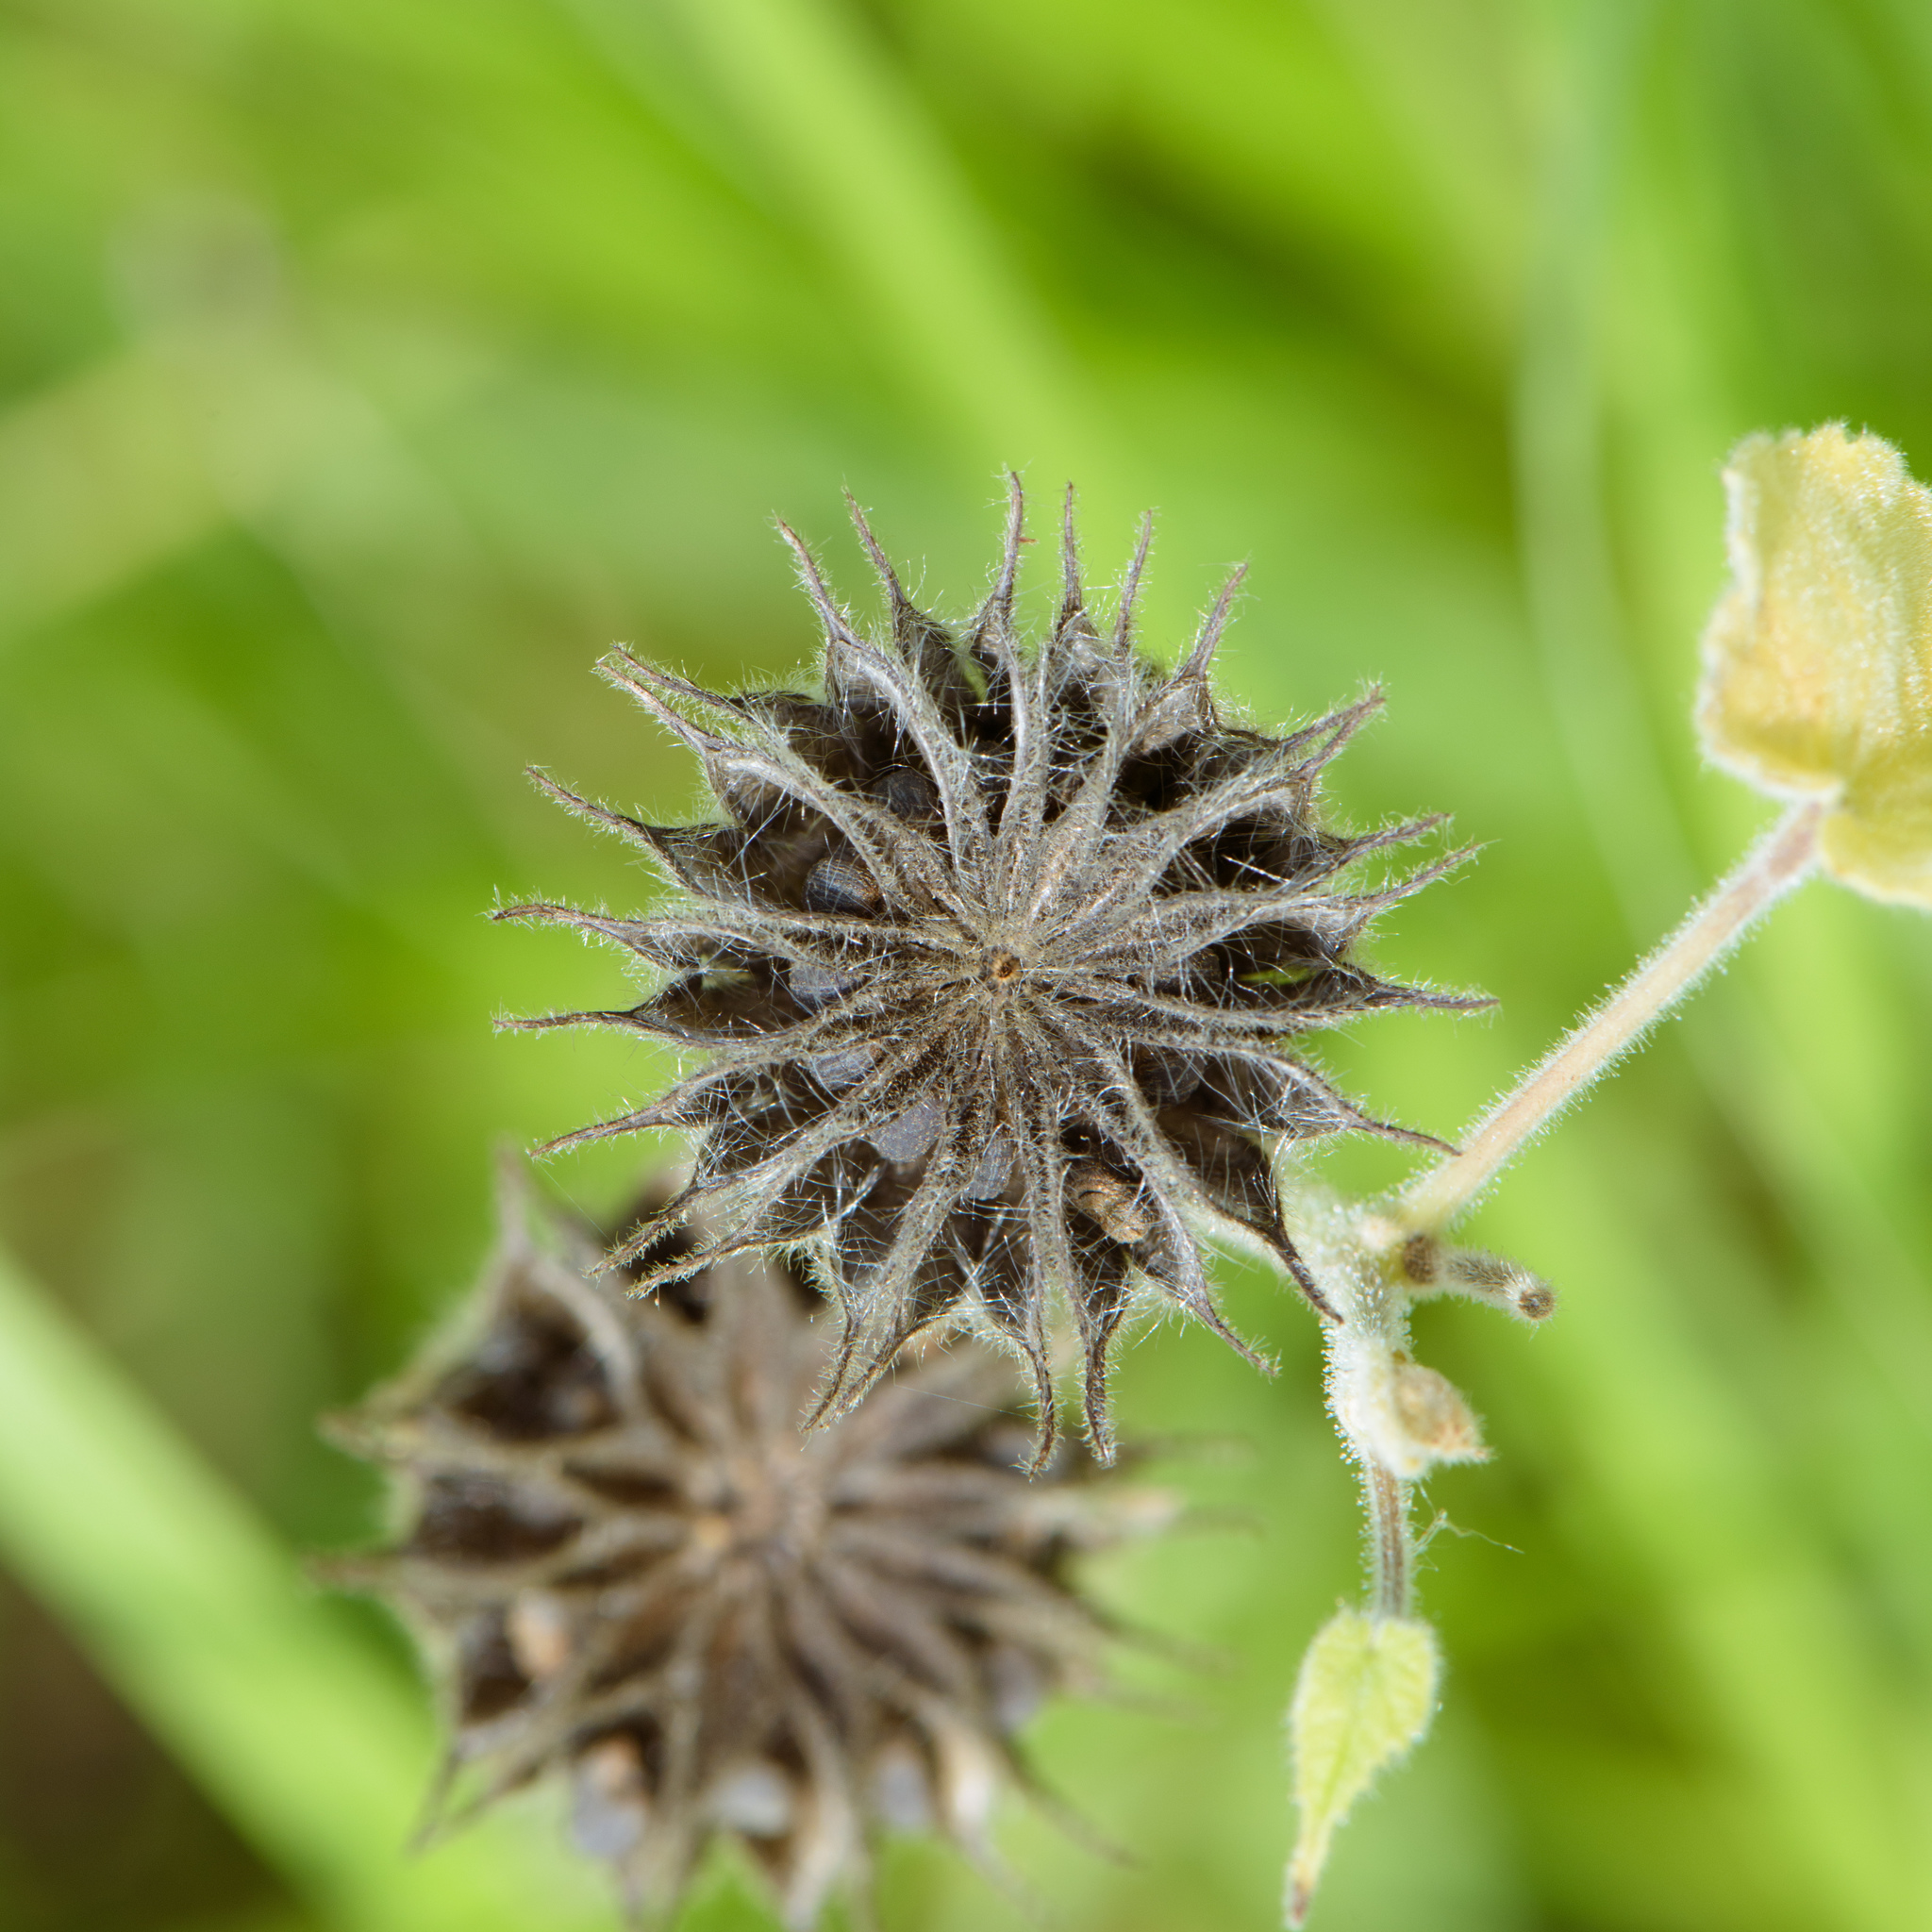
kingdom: Plantae
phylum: Tracheophyta
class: Magnoliopsida
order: Malvales
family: Malvaceae
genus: Abutilon
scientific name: Abutilon theophrasti
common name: Velvetleaf
